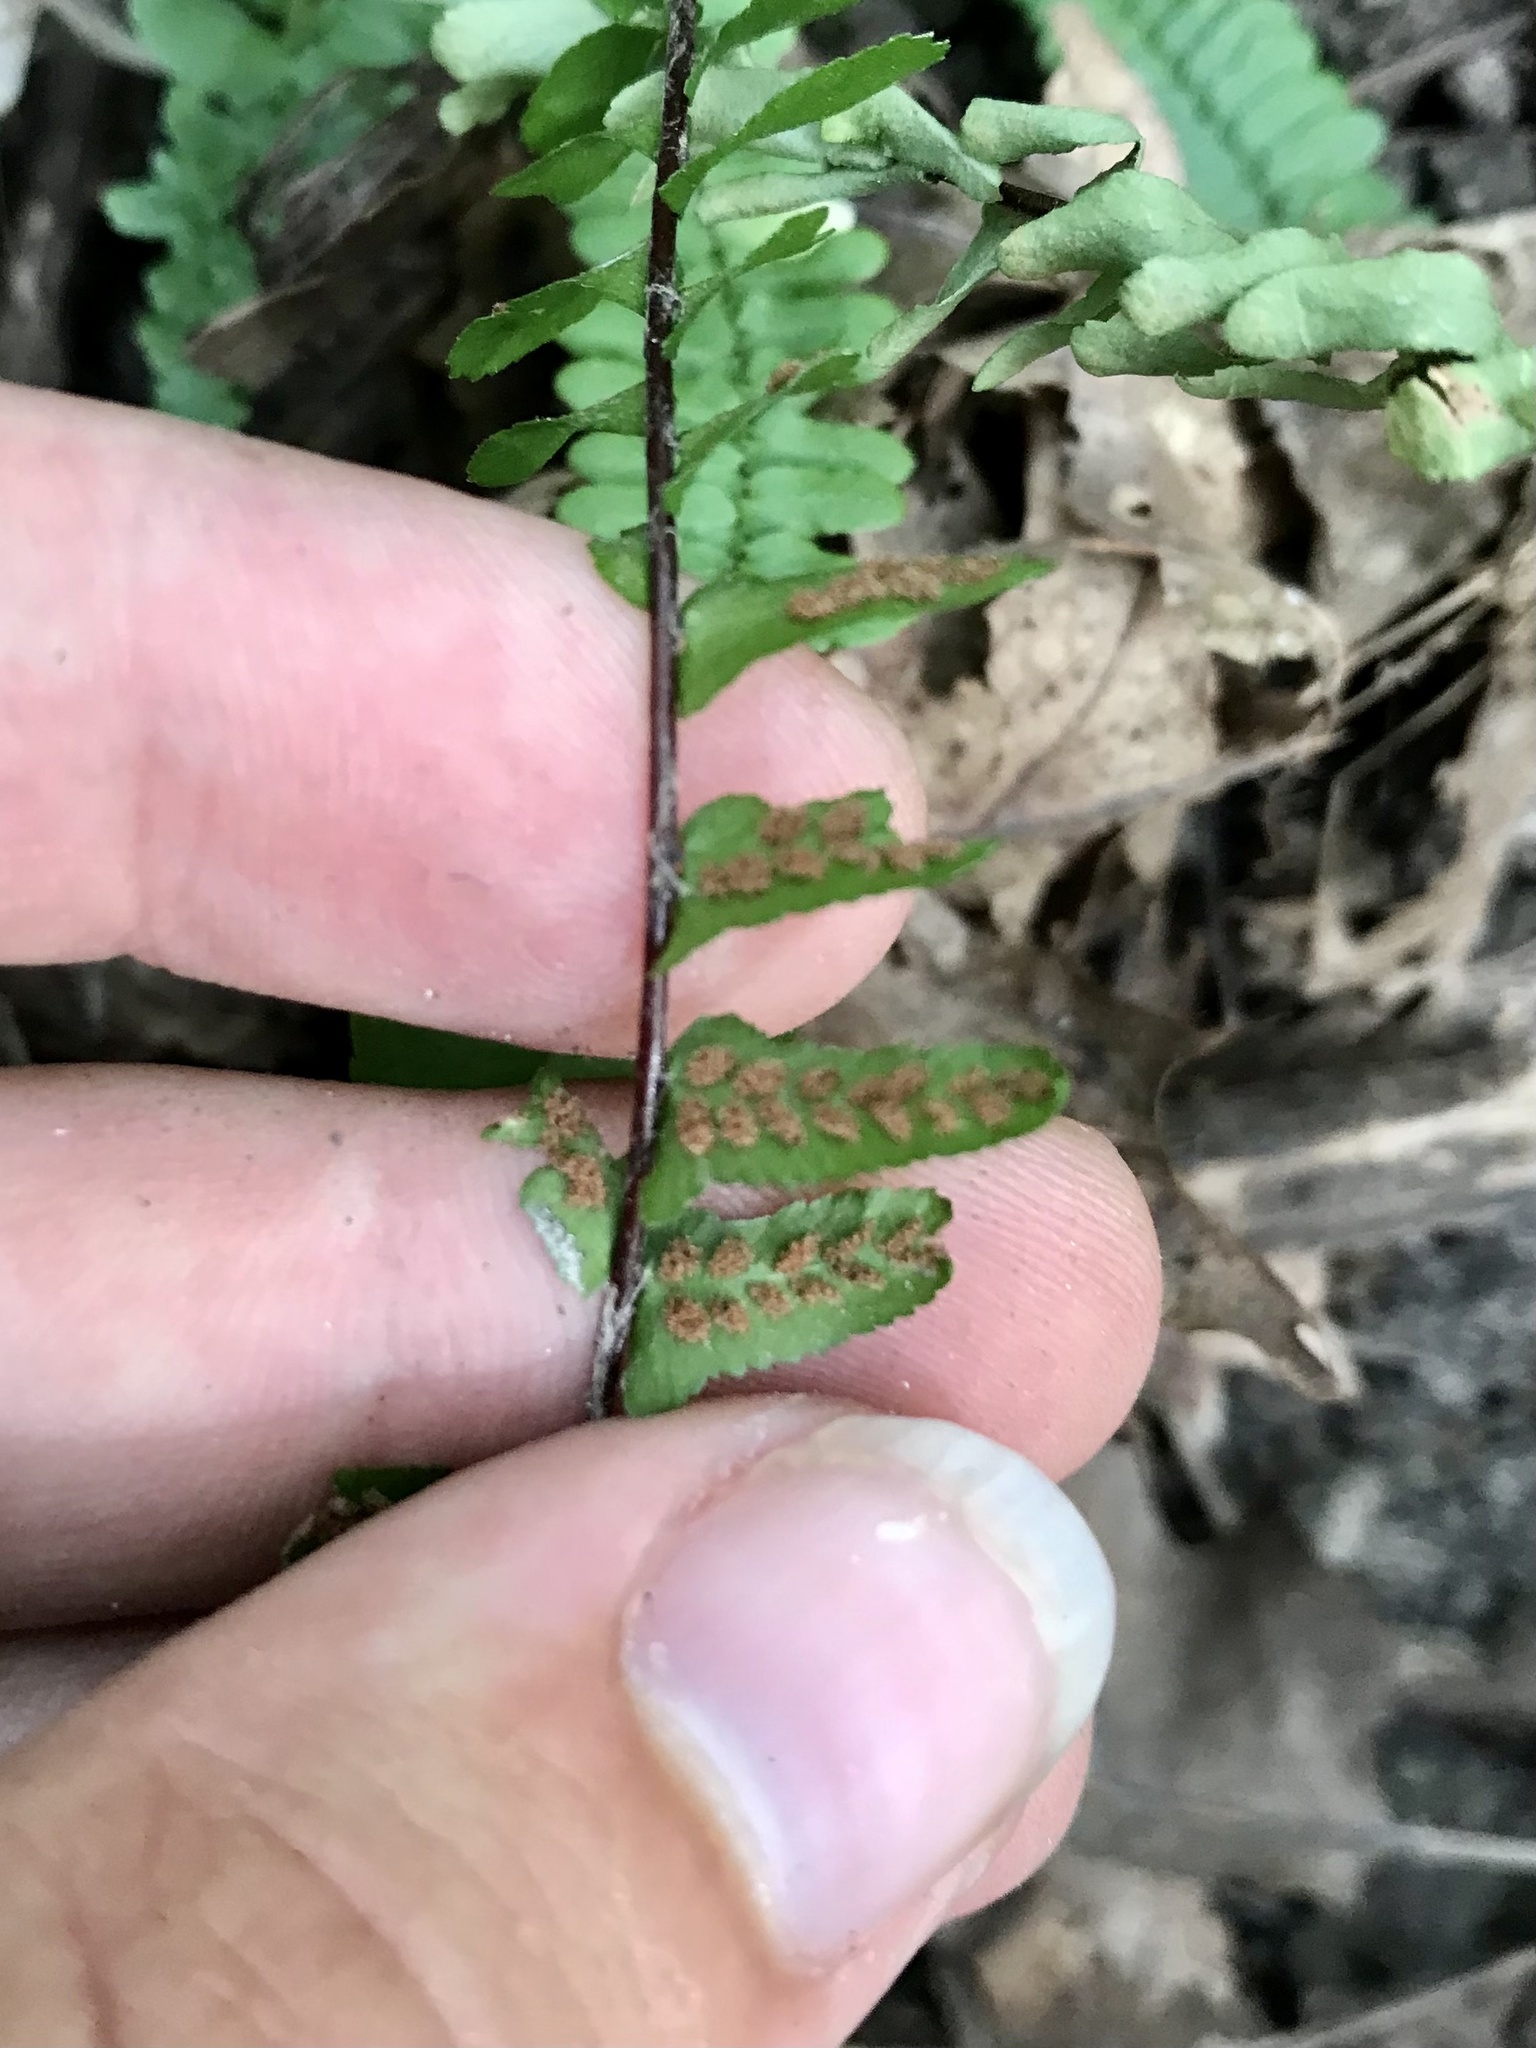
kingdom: Plantae
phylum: Tracheophyta
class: Polypodiopsida
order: Polypodiales
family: Aspleniaceae
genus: Asplenium
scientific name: Asplenium platyneuron
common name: Ebony spleenwort
